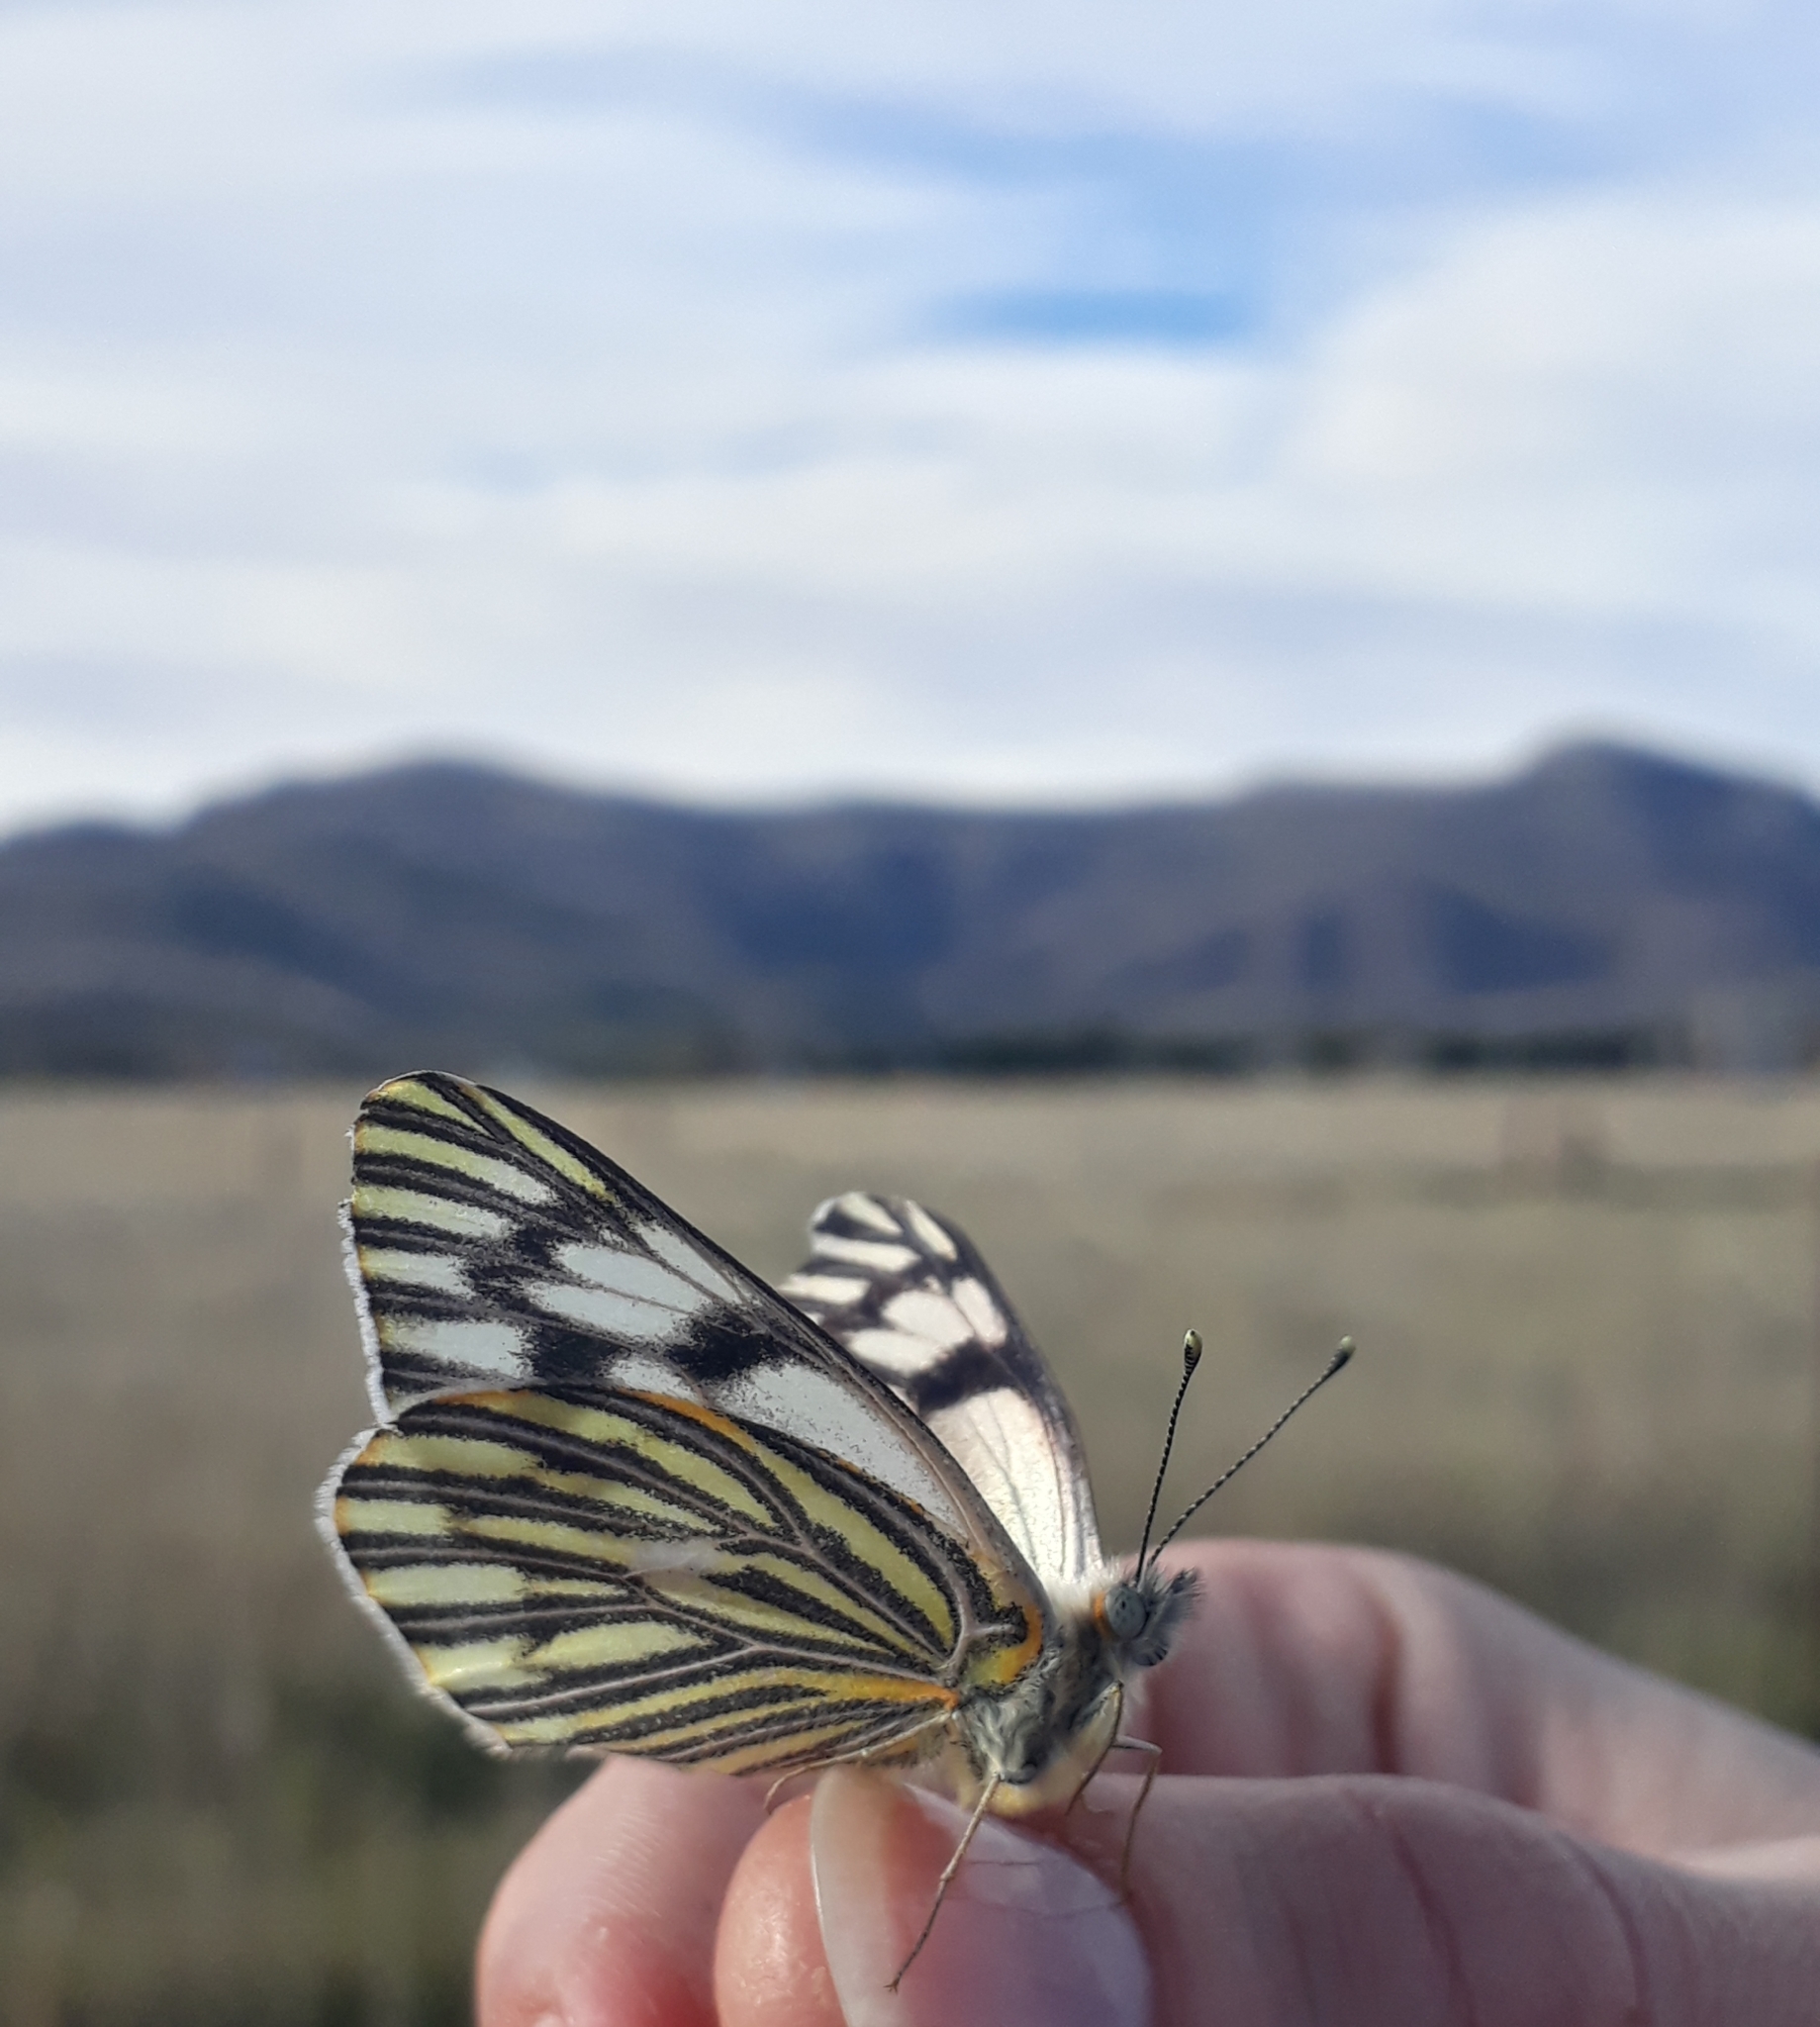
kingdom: Animalia
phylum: Arthropoda
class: Insecta
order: Lepidoptera
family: Pieridae
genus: Tatochila
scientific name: Tatochila mercedis
